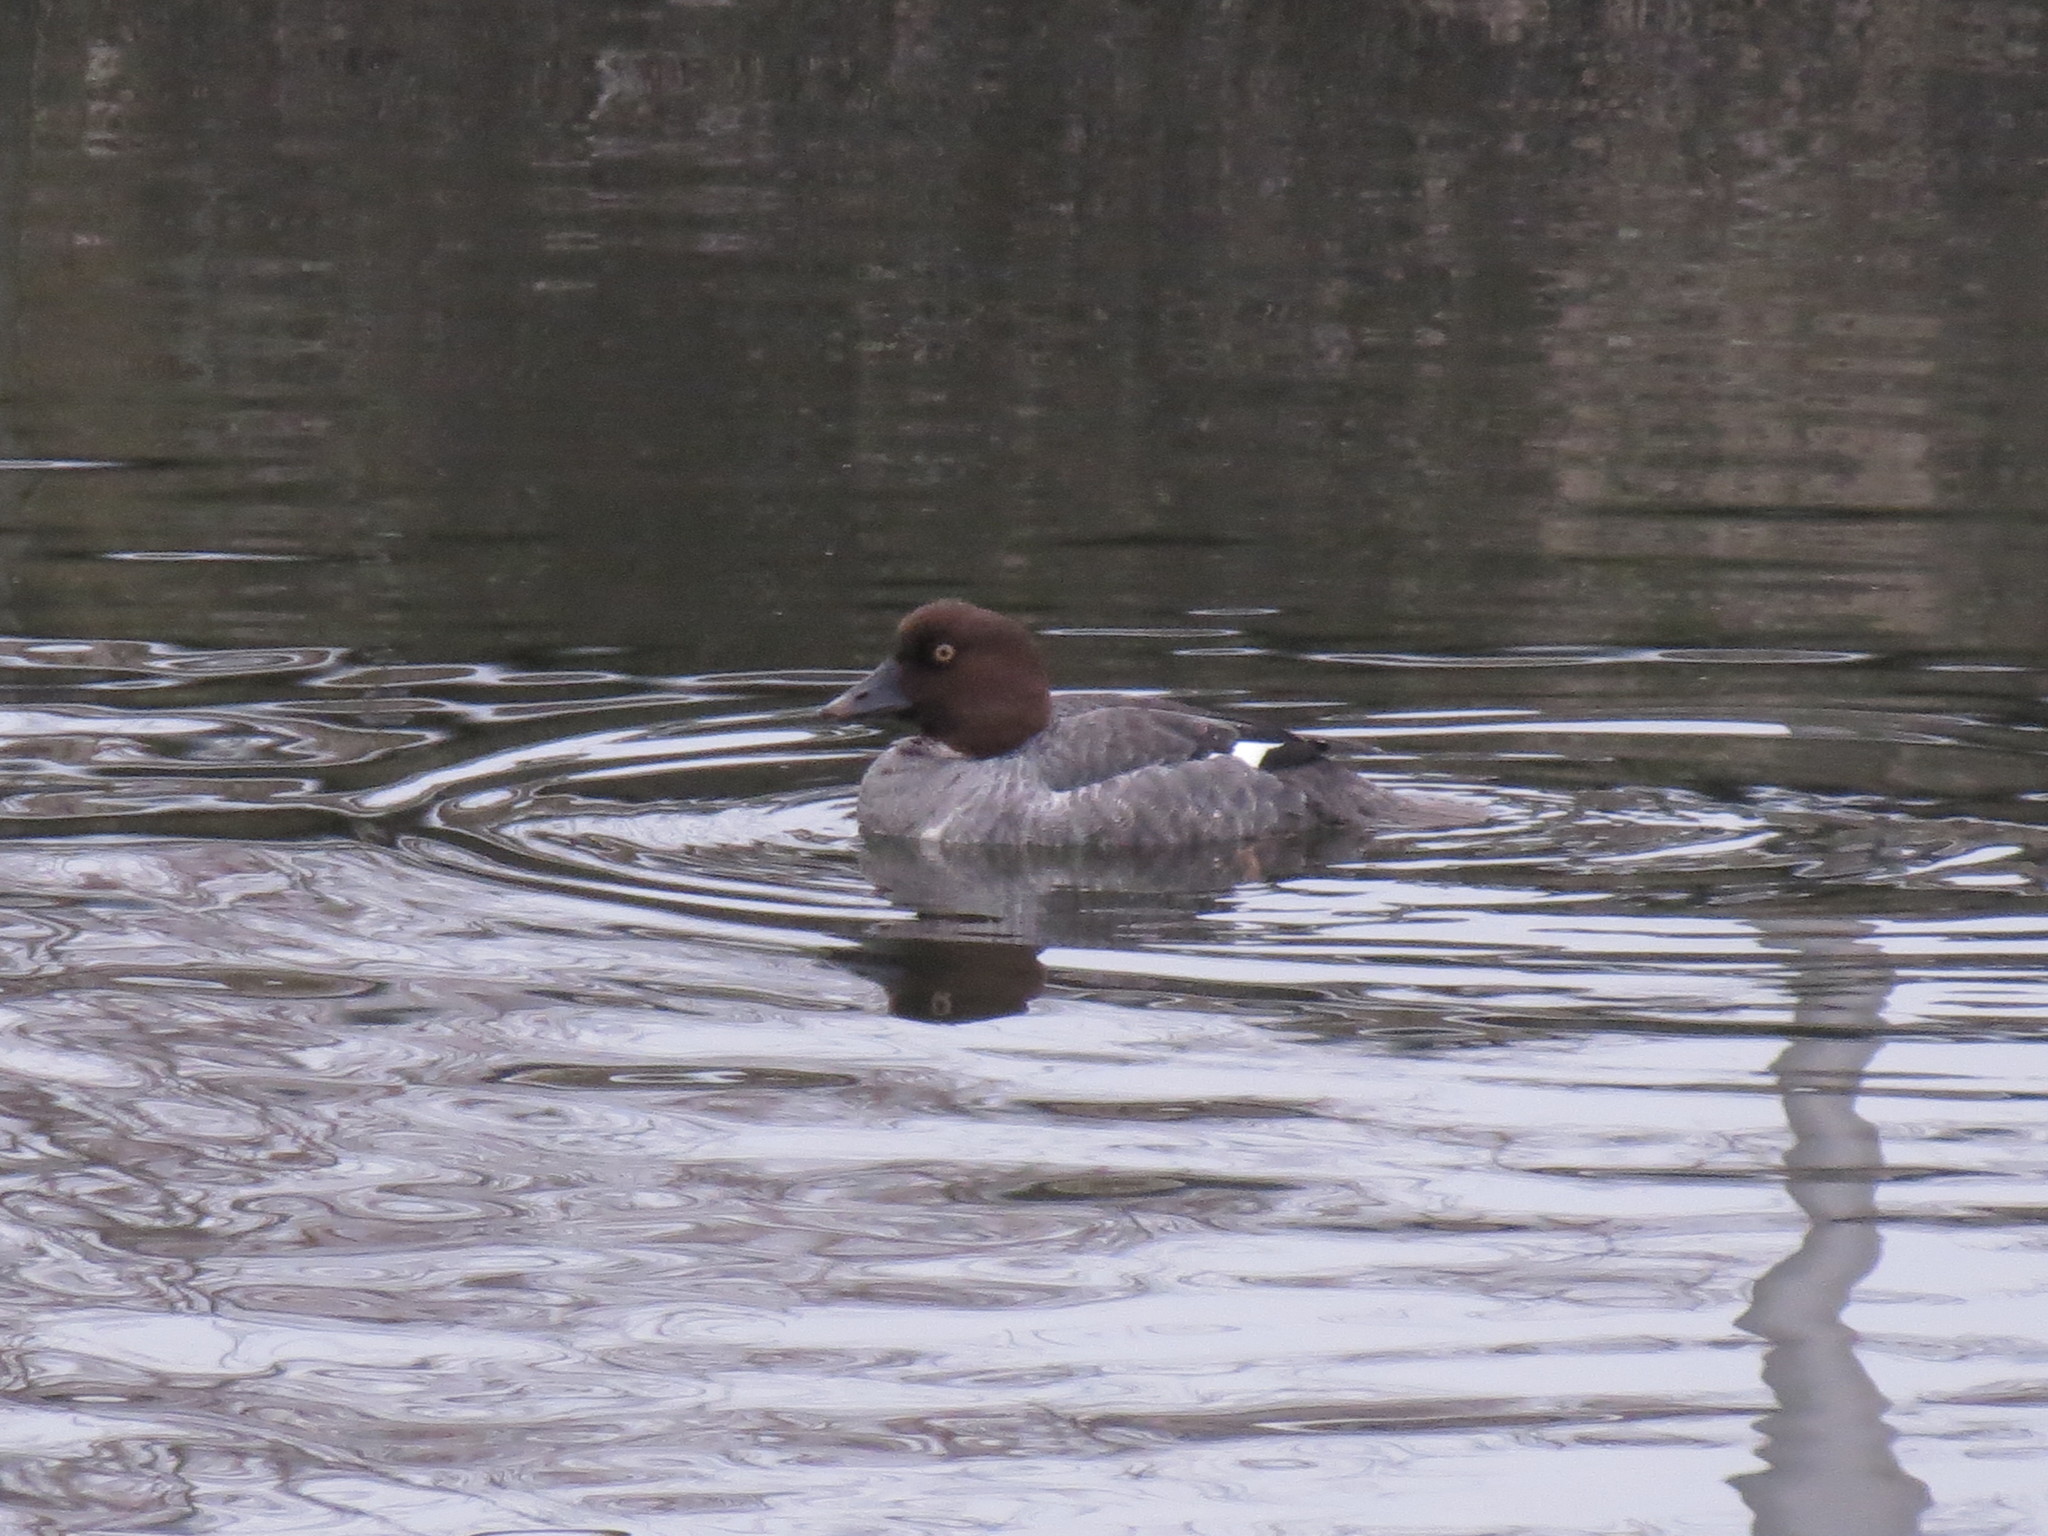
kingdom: Animalia
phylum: Chordata
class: Aves
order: Anseriformes
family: Anatidae
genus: Bucephala
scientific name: Bucephala clangula
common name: Common goldeneye
